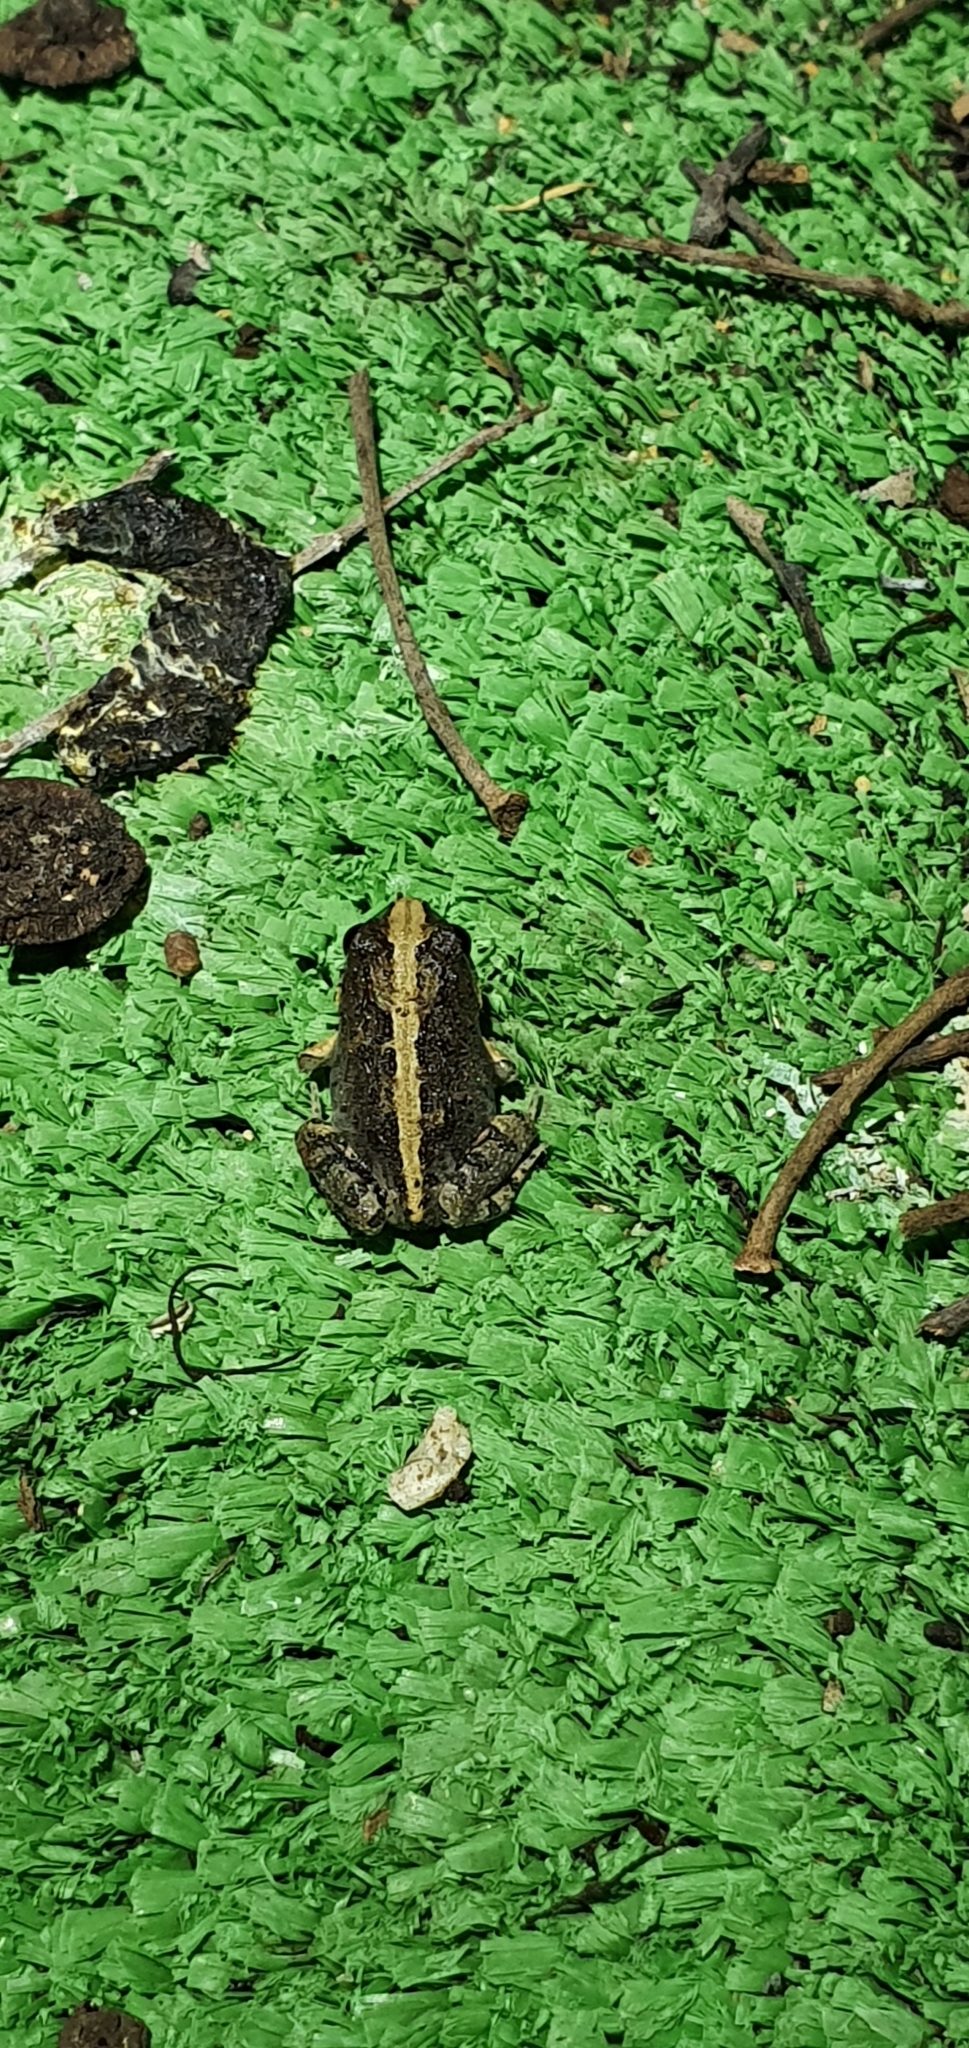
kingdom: Animalia
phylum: Chordata
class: Amphibia
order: Anura
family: Limnodynastidae
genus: Platyplectrum
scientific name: Platyplectrum ornatum
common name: Ornate burrowing frog
